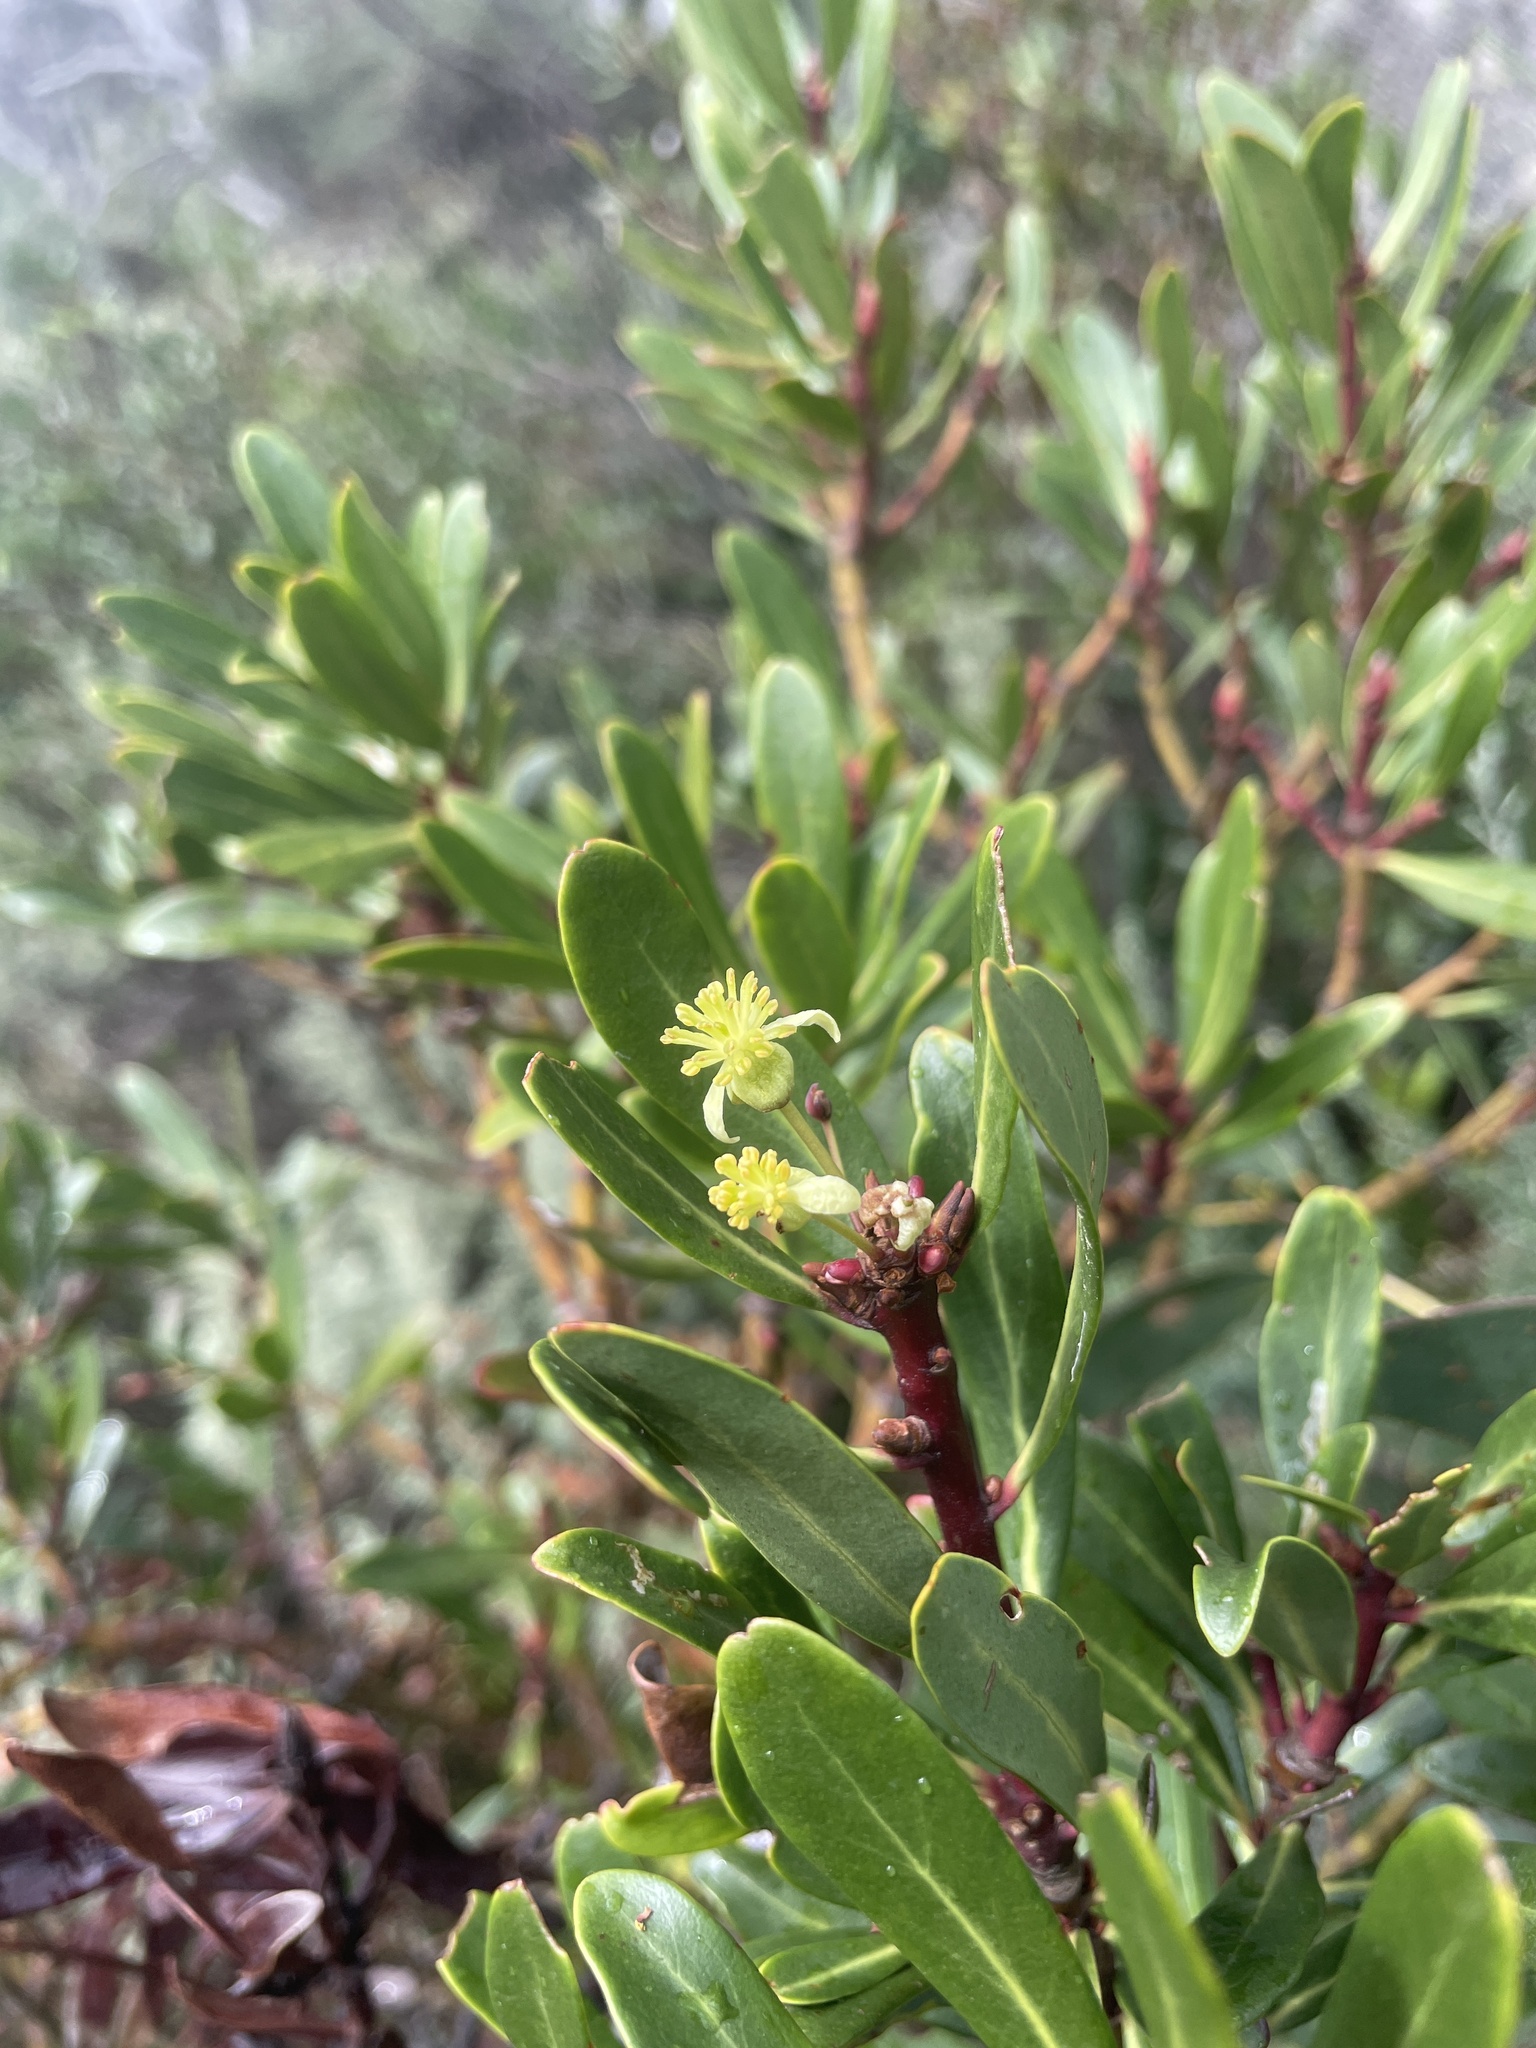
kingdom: Plantae
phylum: Tracheophyta
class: Magnoliopsida
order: Canellales
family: Winteraceae
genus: Drimys
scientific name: Drimys xerophila
